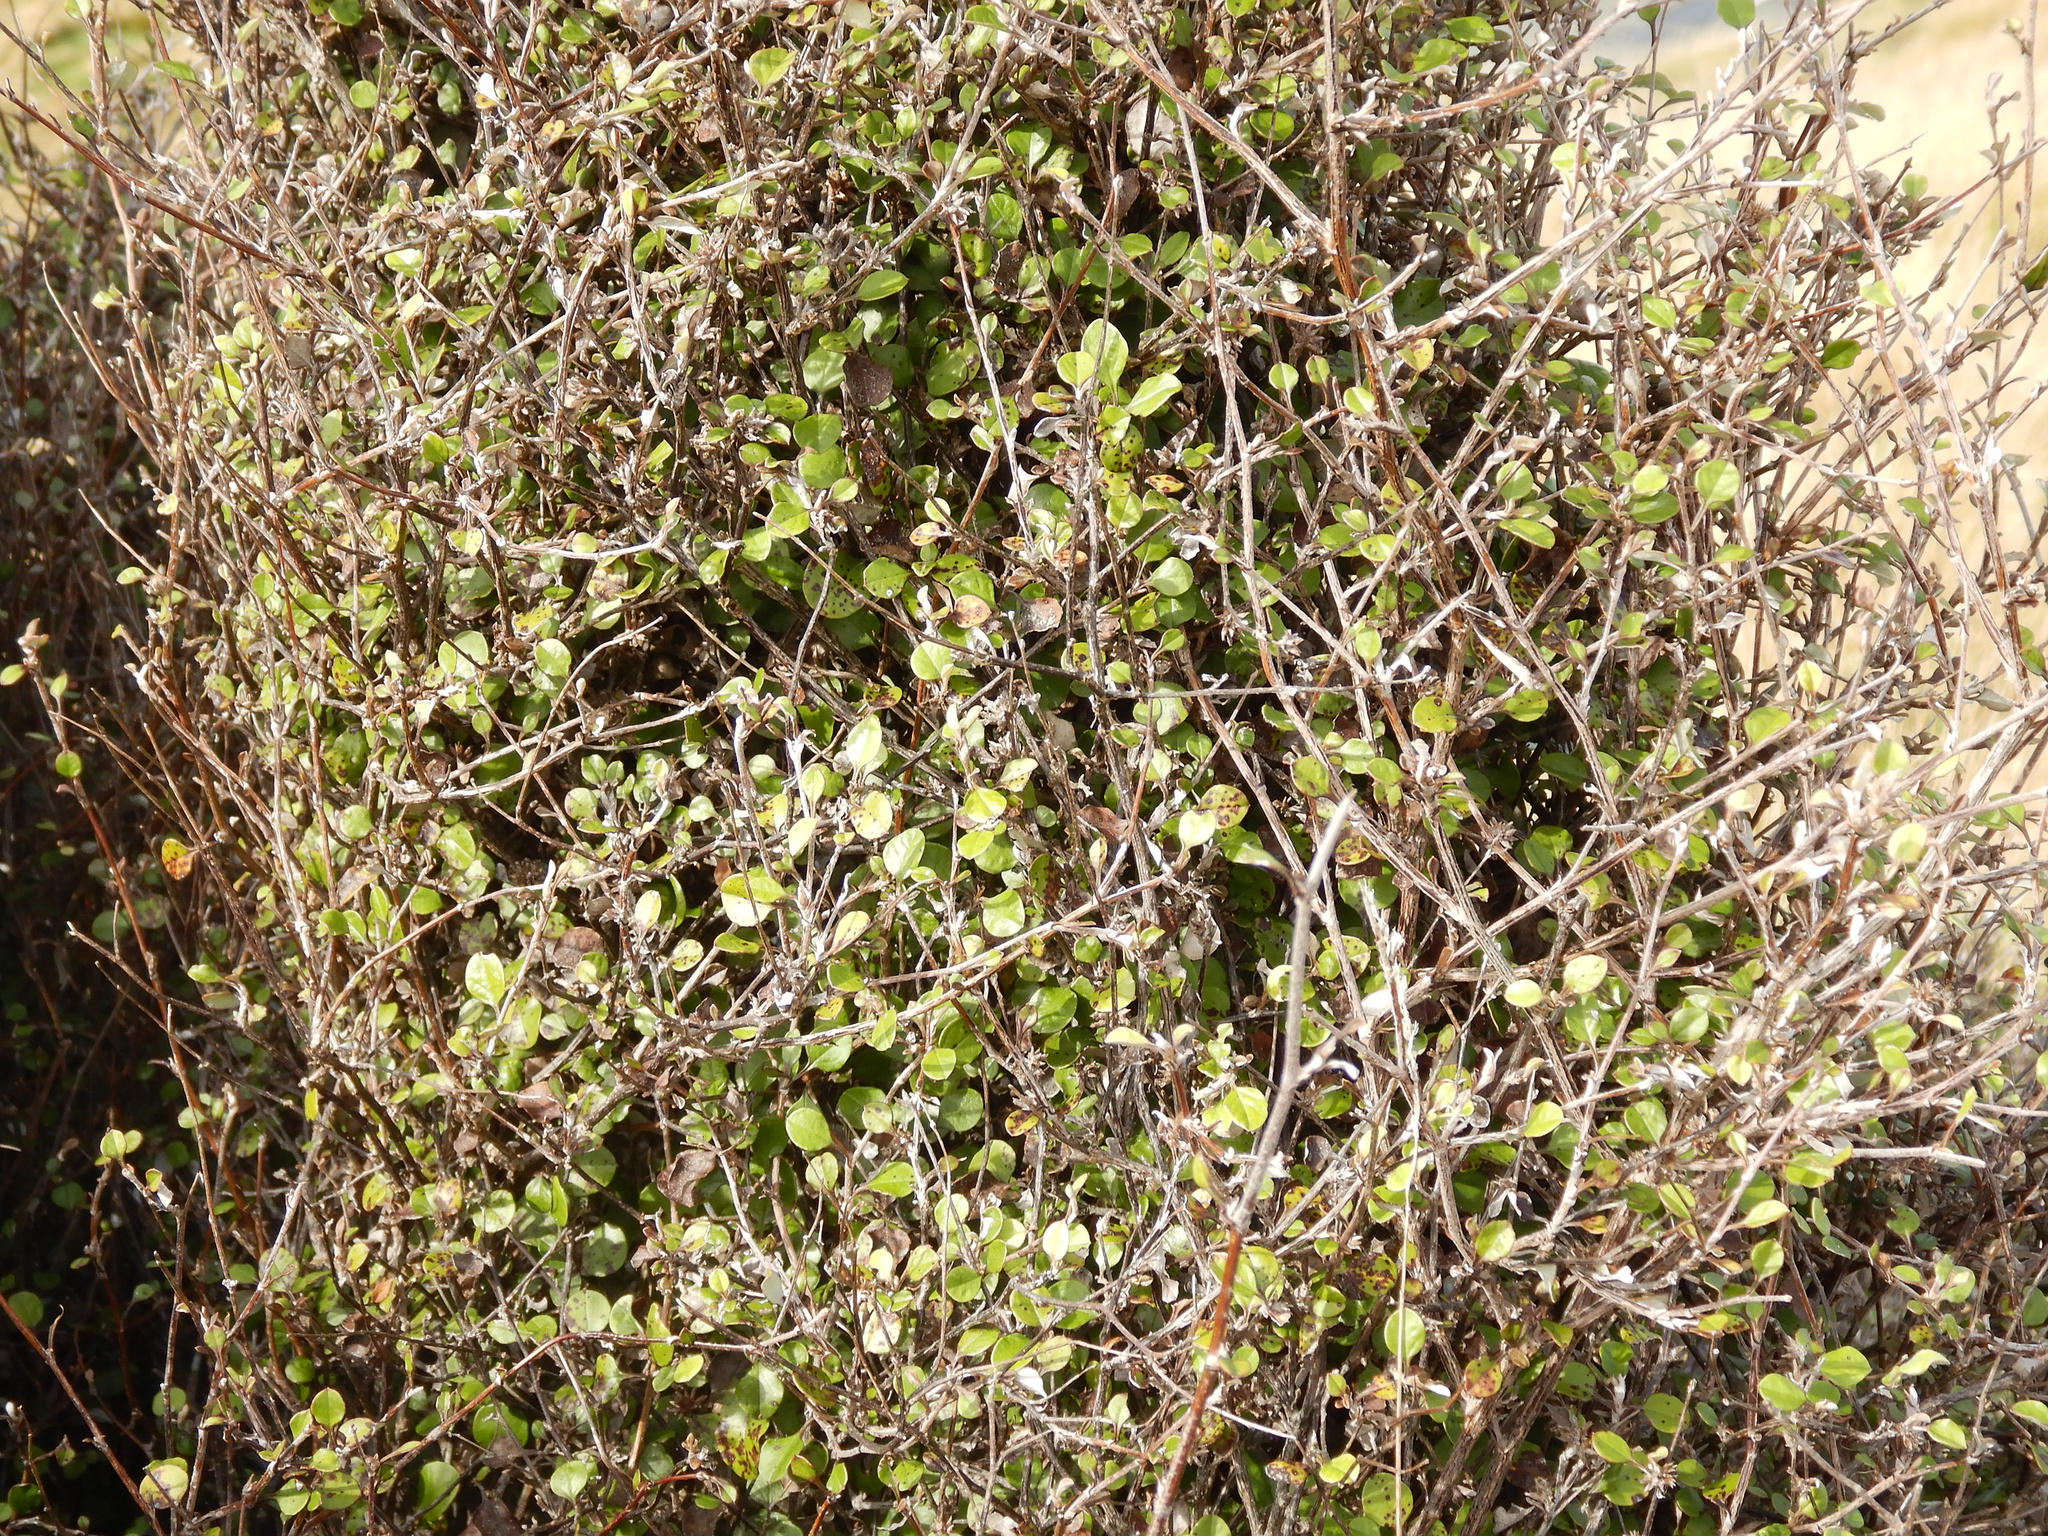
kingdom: Plantae
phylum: Tracheophyta
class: Magnoliopsida
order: Asterales
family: Asteraceae
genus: Ozothamnus
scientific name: Ozothamnus glomeratus
